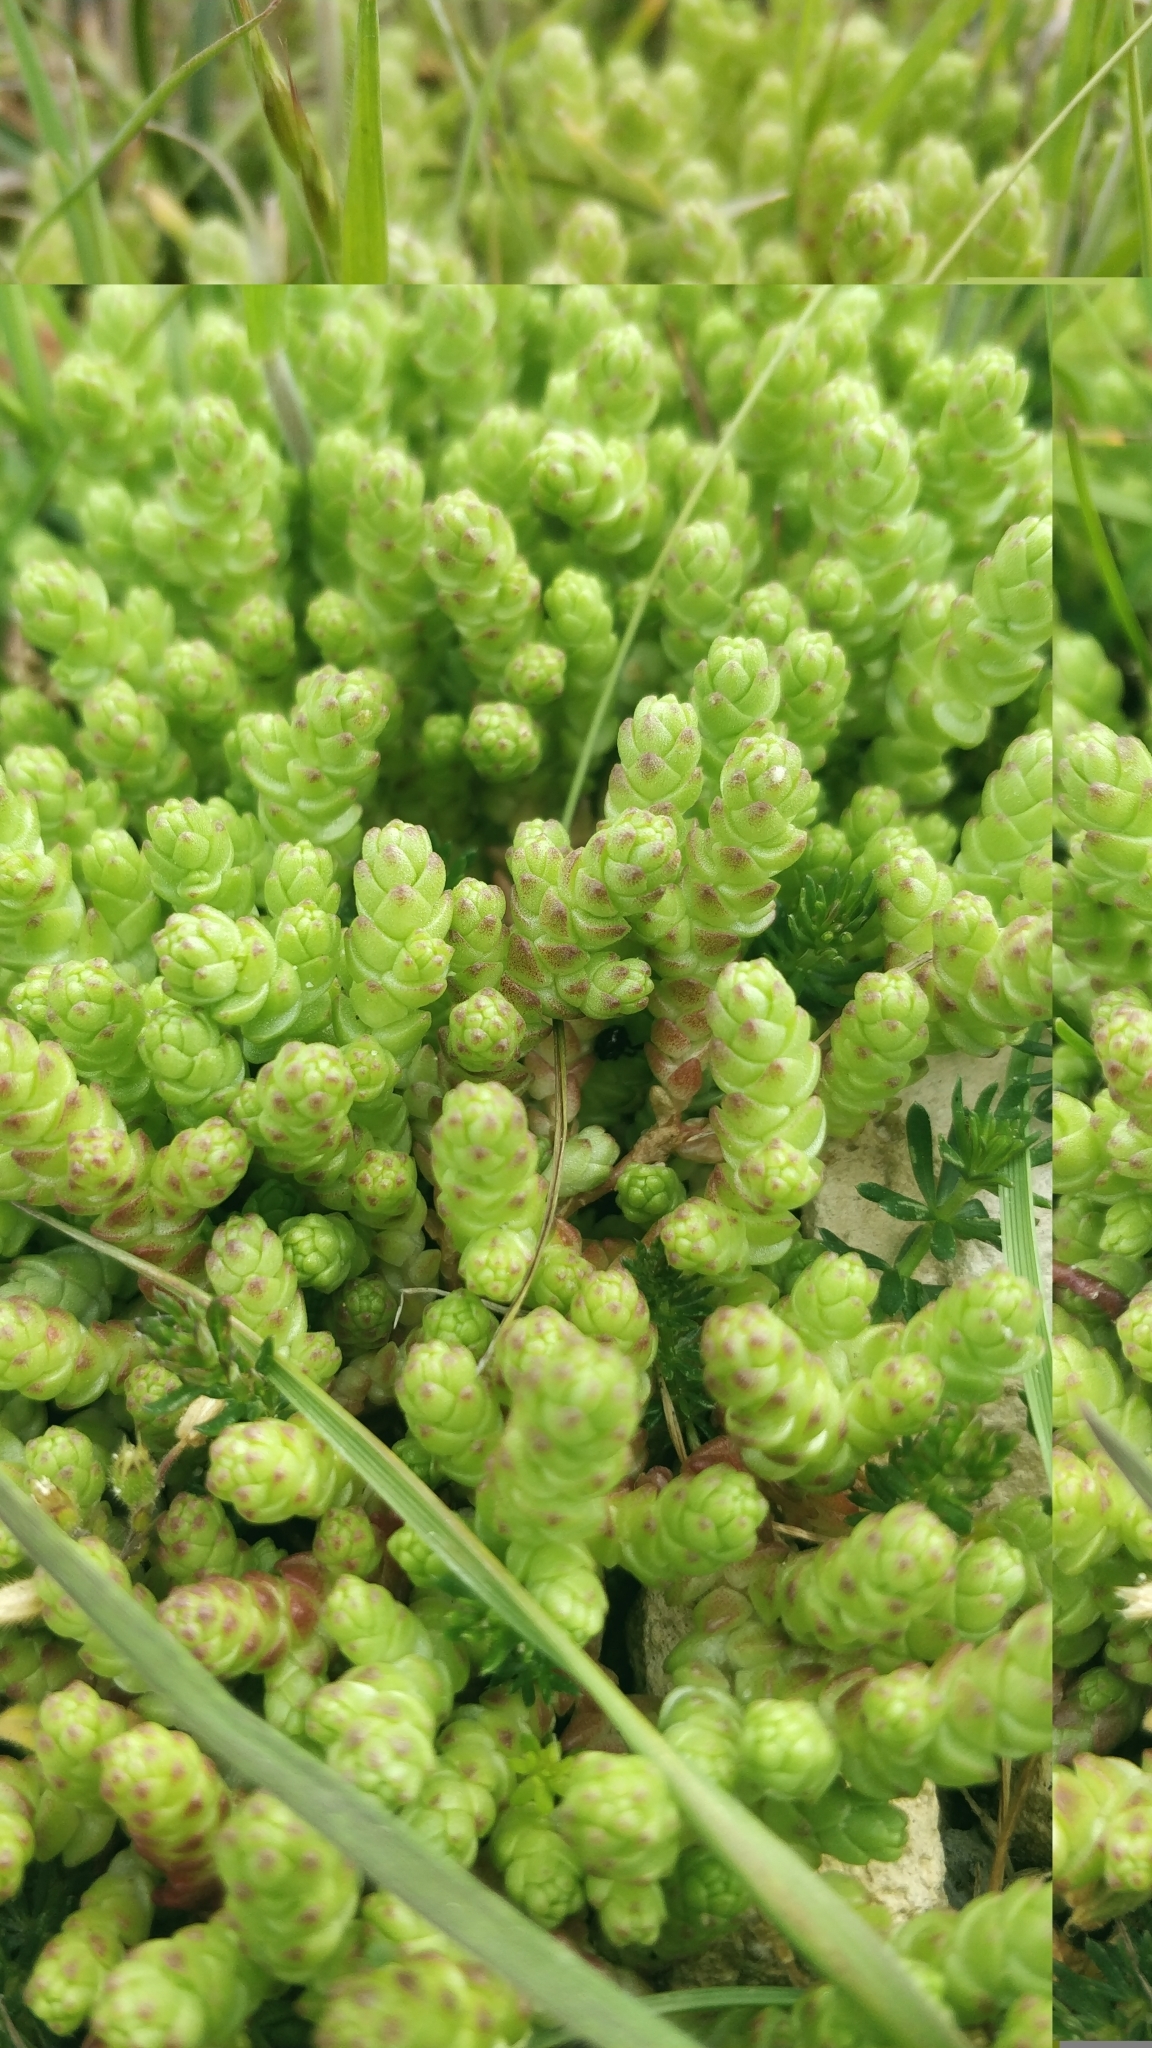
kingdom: Plantae
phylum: Tracheophyta
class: Magnoliopsida
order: Saxifragales
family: Crassulaceae
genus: Sedum
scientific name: Sedum acre
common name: Biting stonecrop
